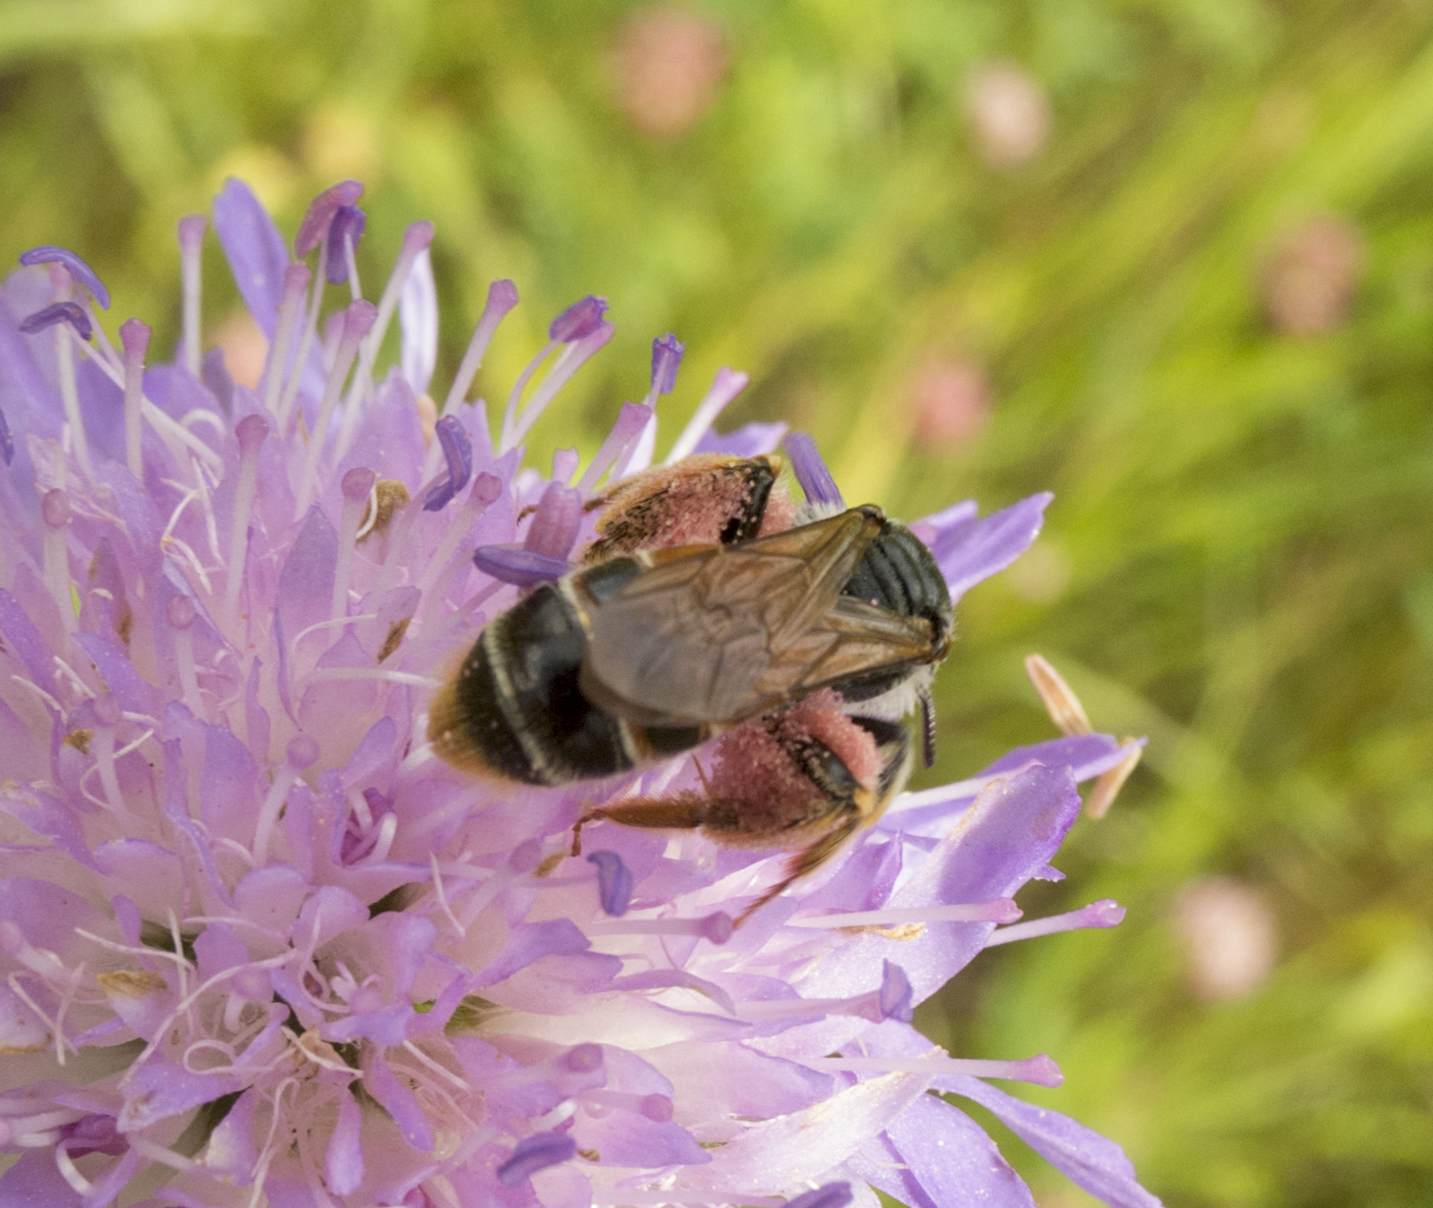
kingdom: Animalia
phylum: Arthropoda
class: Insecta
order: Hymenoptera
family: Andrenidae
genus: Andrena
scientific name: Andrena hattorfiana
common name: Large scabious mining bee
